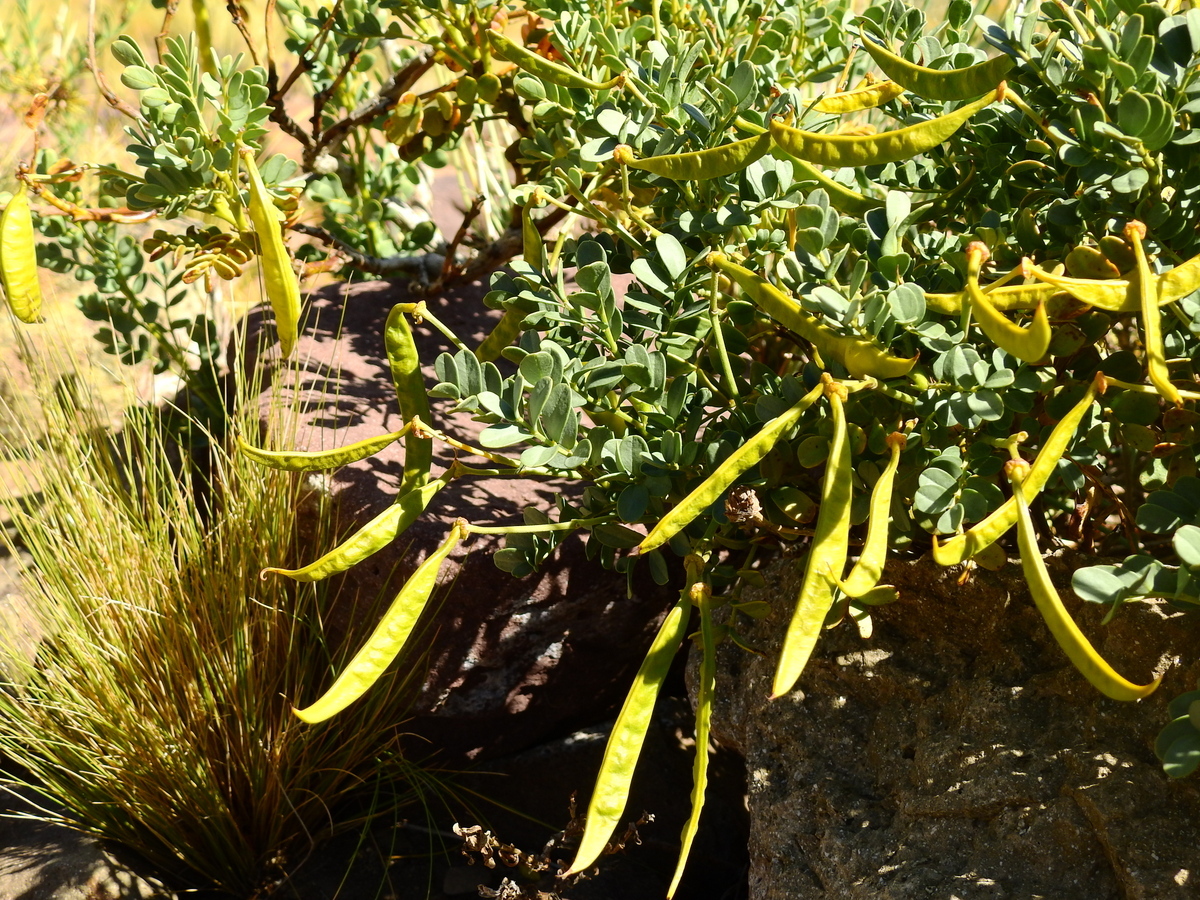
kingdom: Plantae
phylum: Tracheophyta
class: Magnoliopsida
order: Fabales
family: Fabaceae
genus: Senna
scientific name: Senna arnottiana
